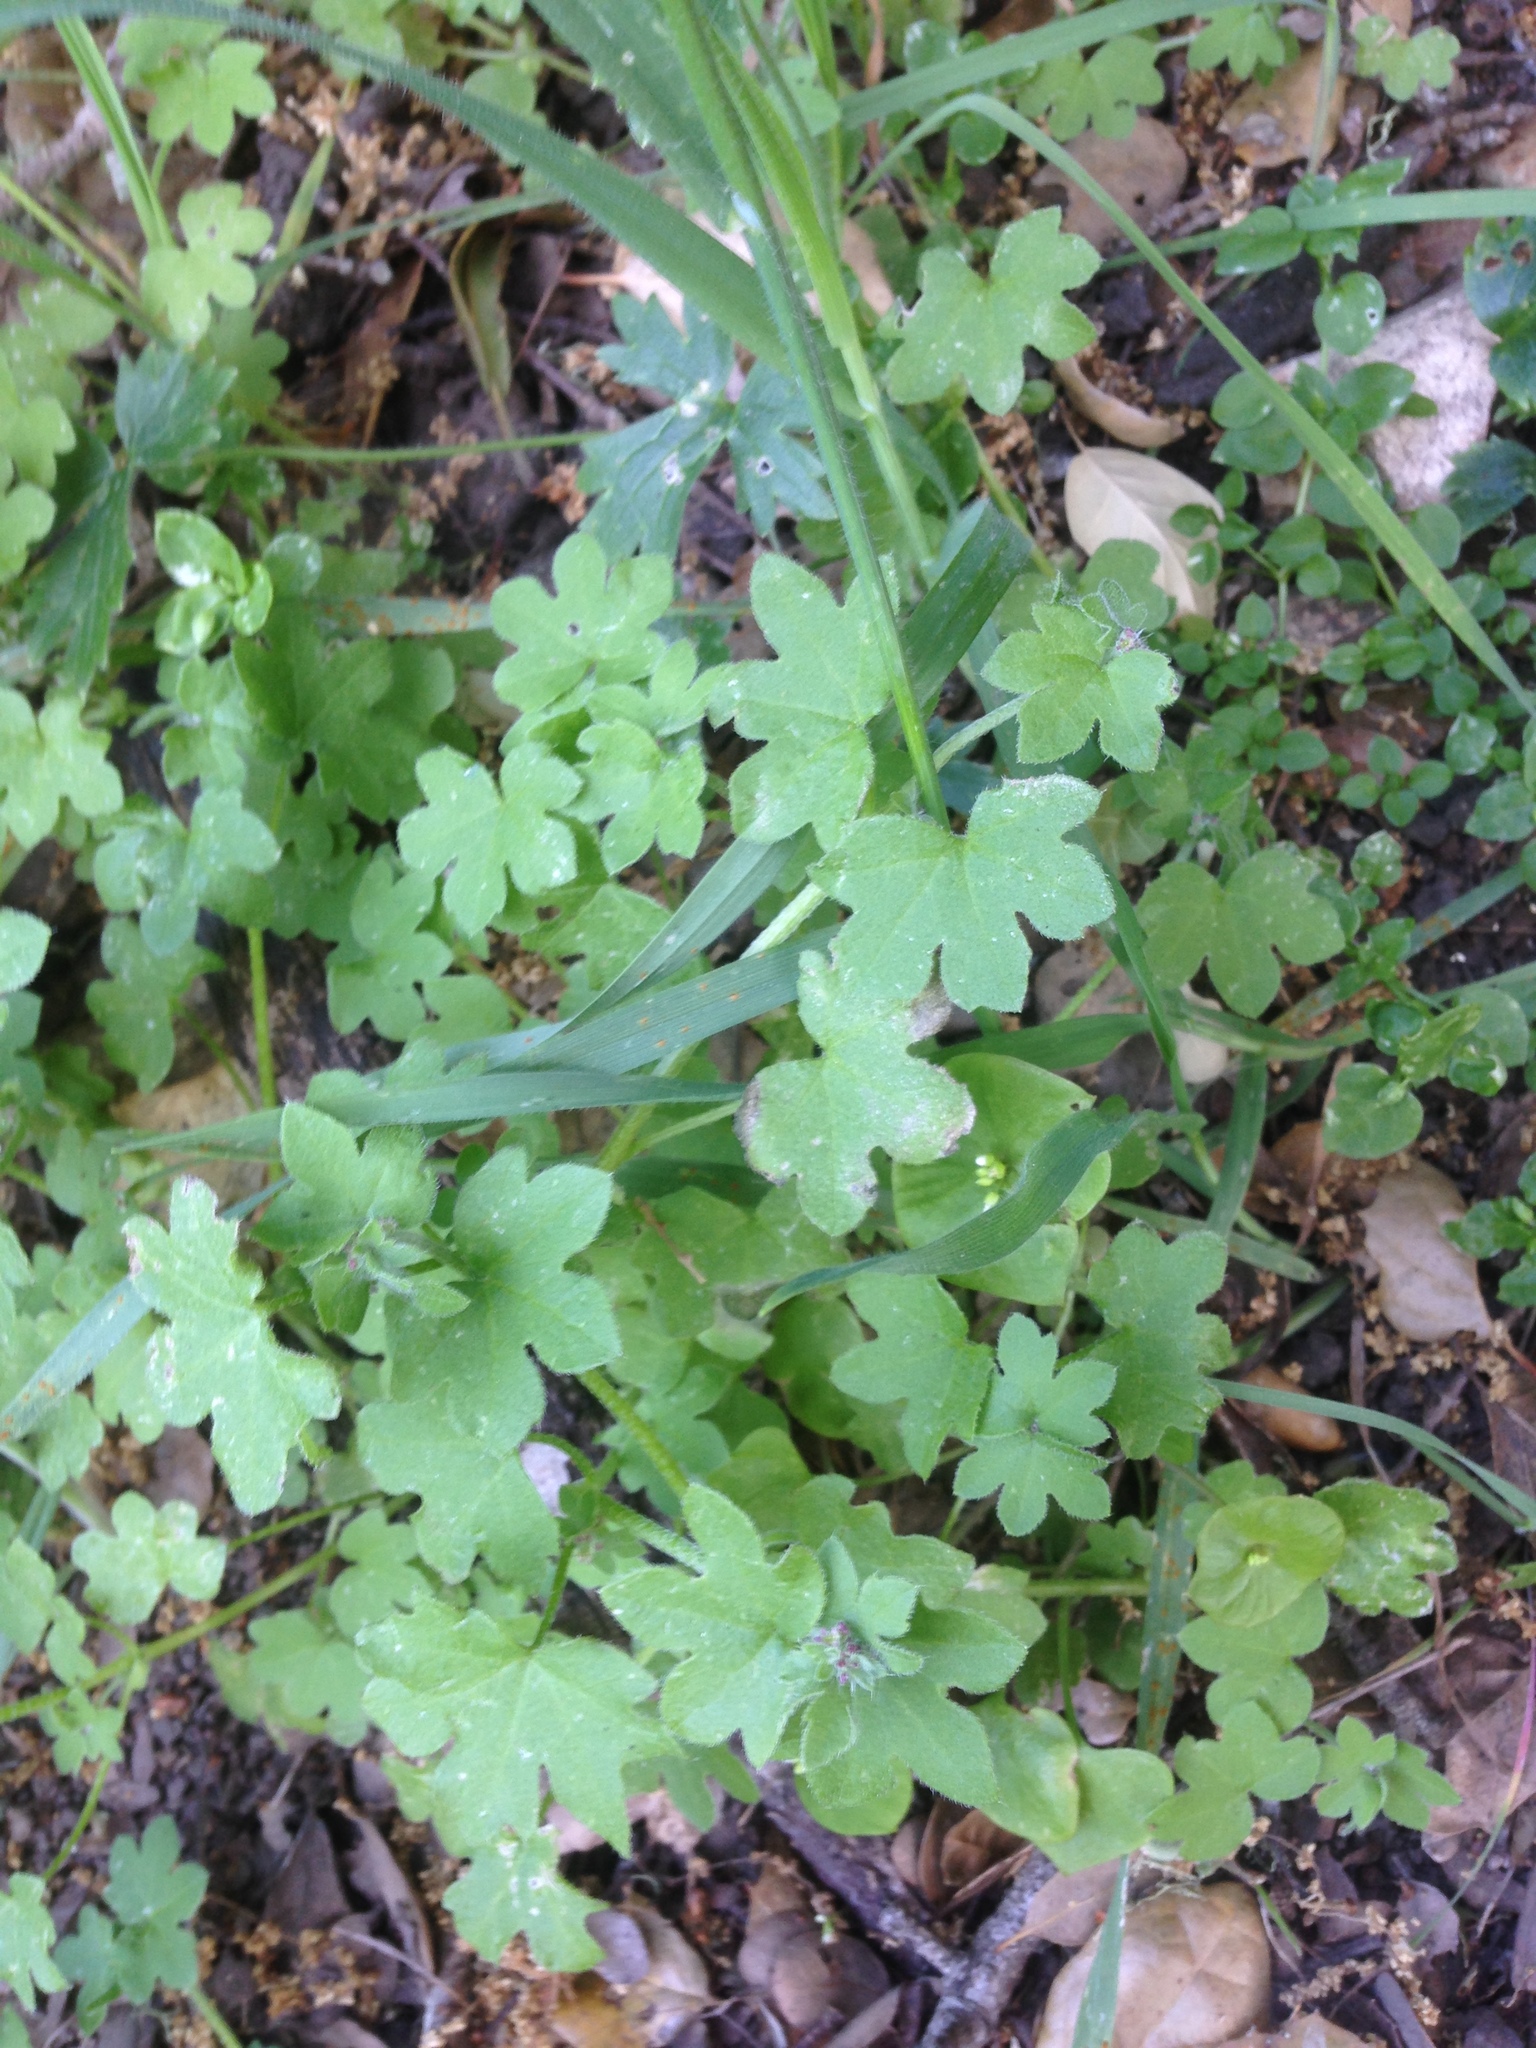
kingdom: Plantae
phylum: Tracheophyta
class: Magnoliopsida
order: Apiales
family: Apiaceae
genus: Bowlesia
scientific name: Bowlesia incana
